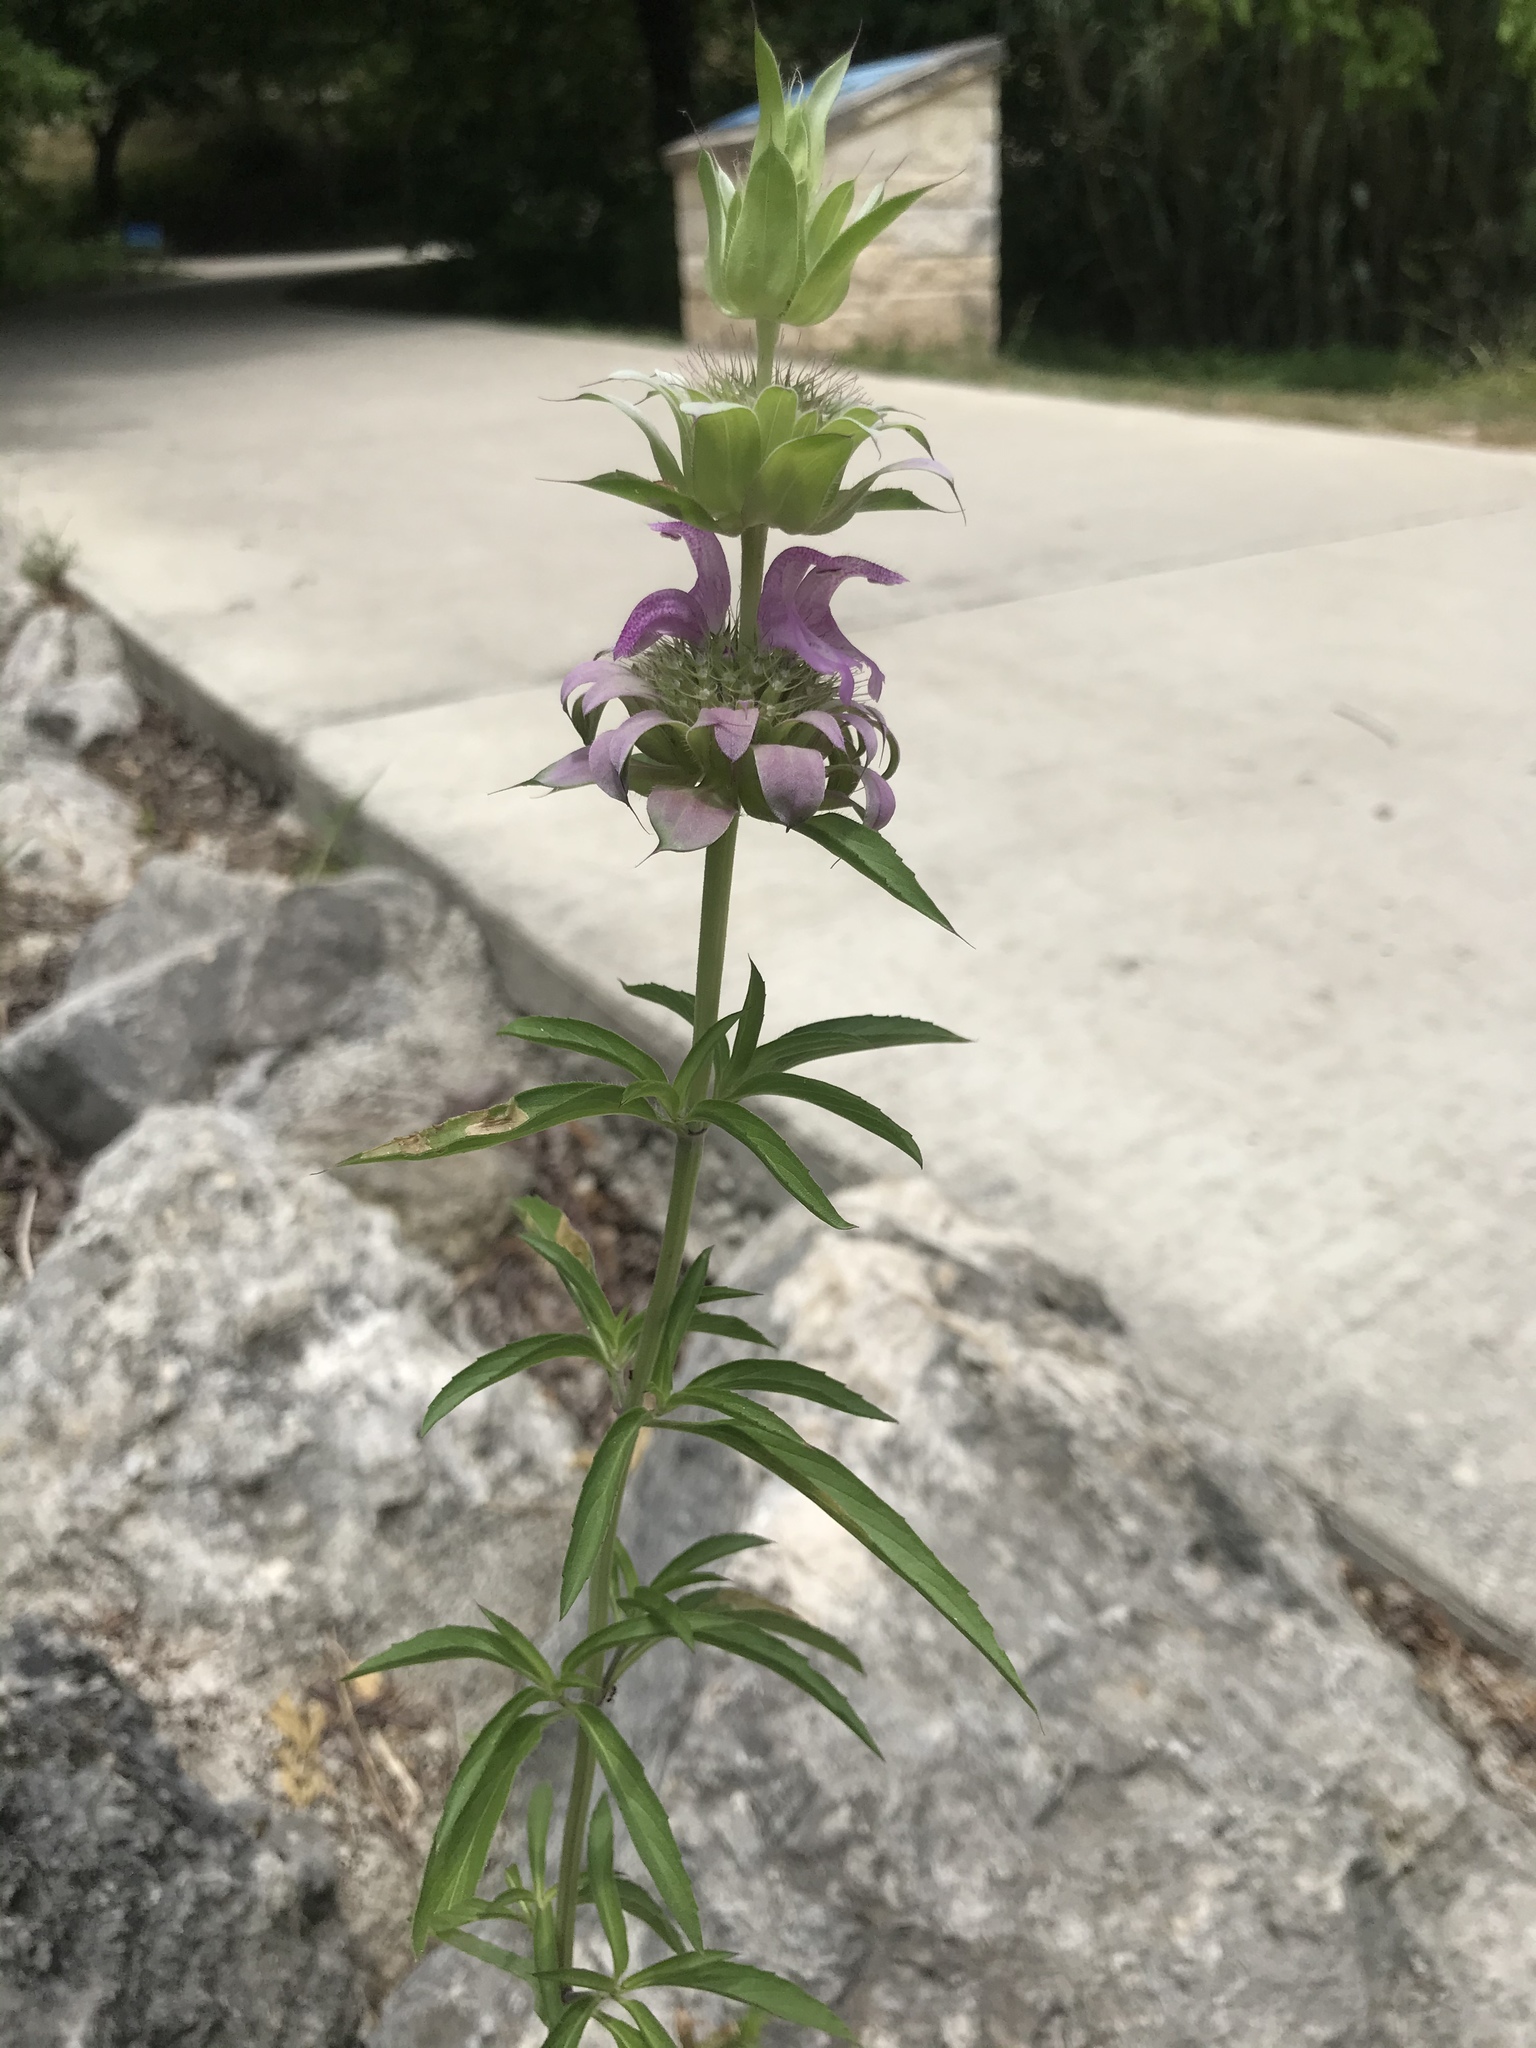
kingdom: Plantae
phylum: Tracheophyta
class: Magnoliopsida
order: Lamiales
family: Lamiaceae
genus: Monarda
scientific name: Monarda citriodora
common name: Lemon beebalm
